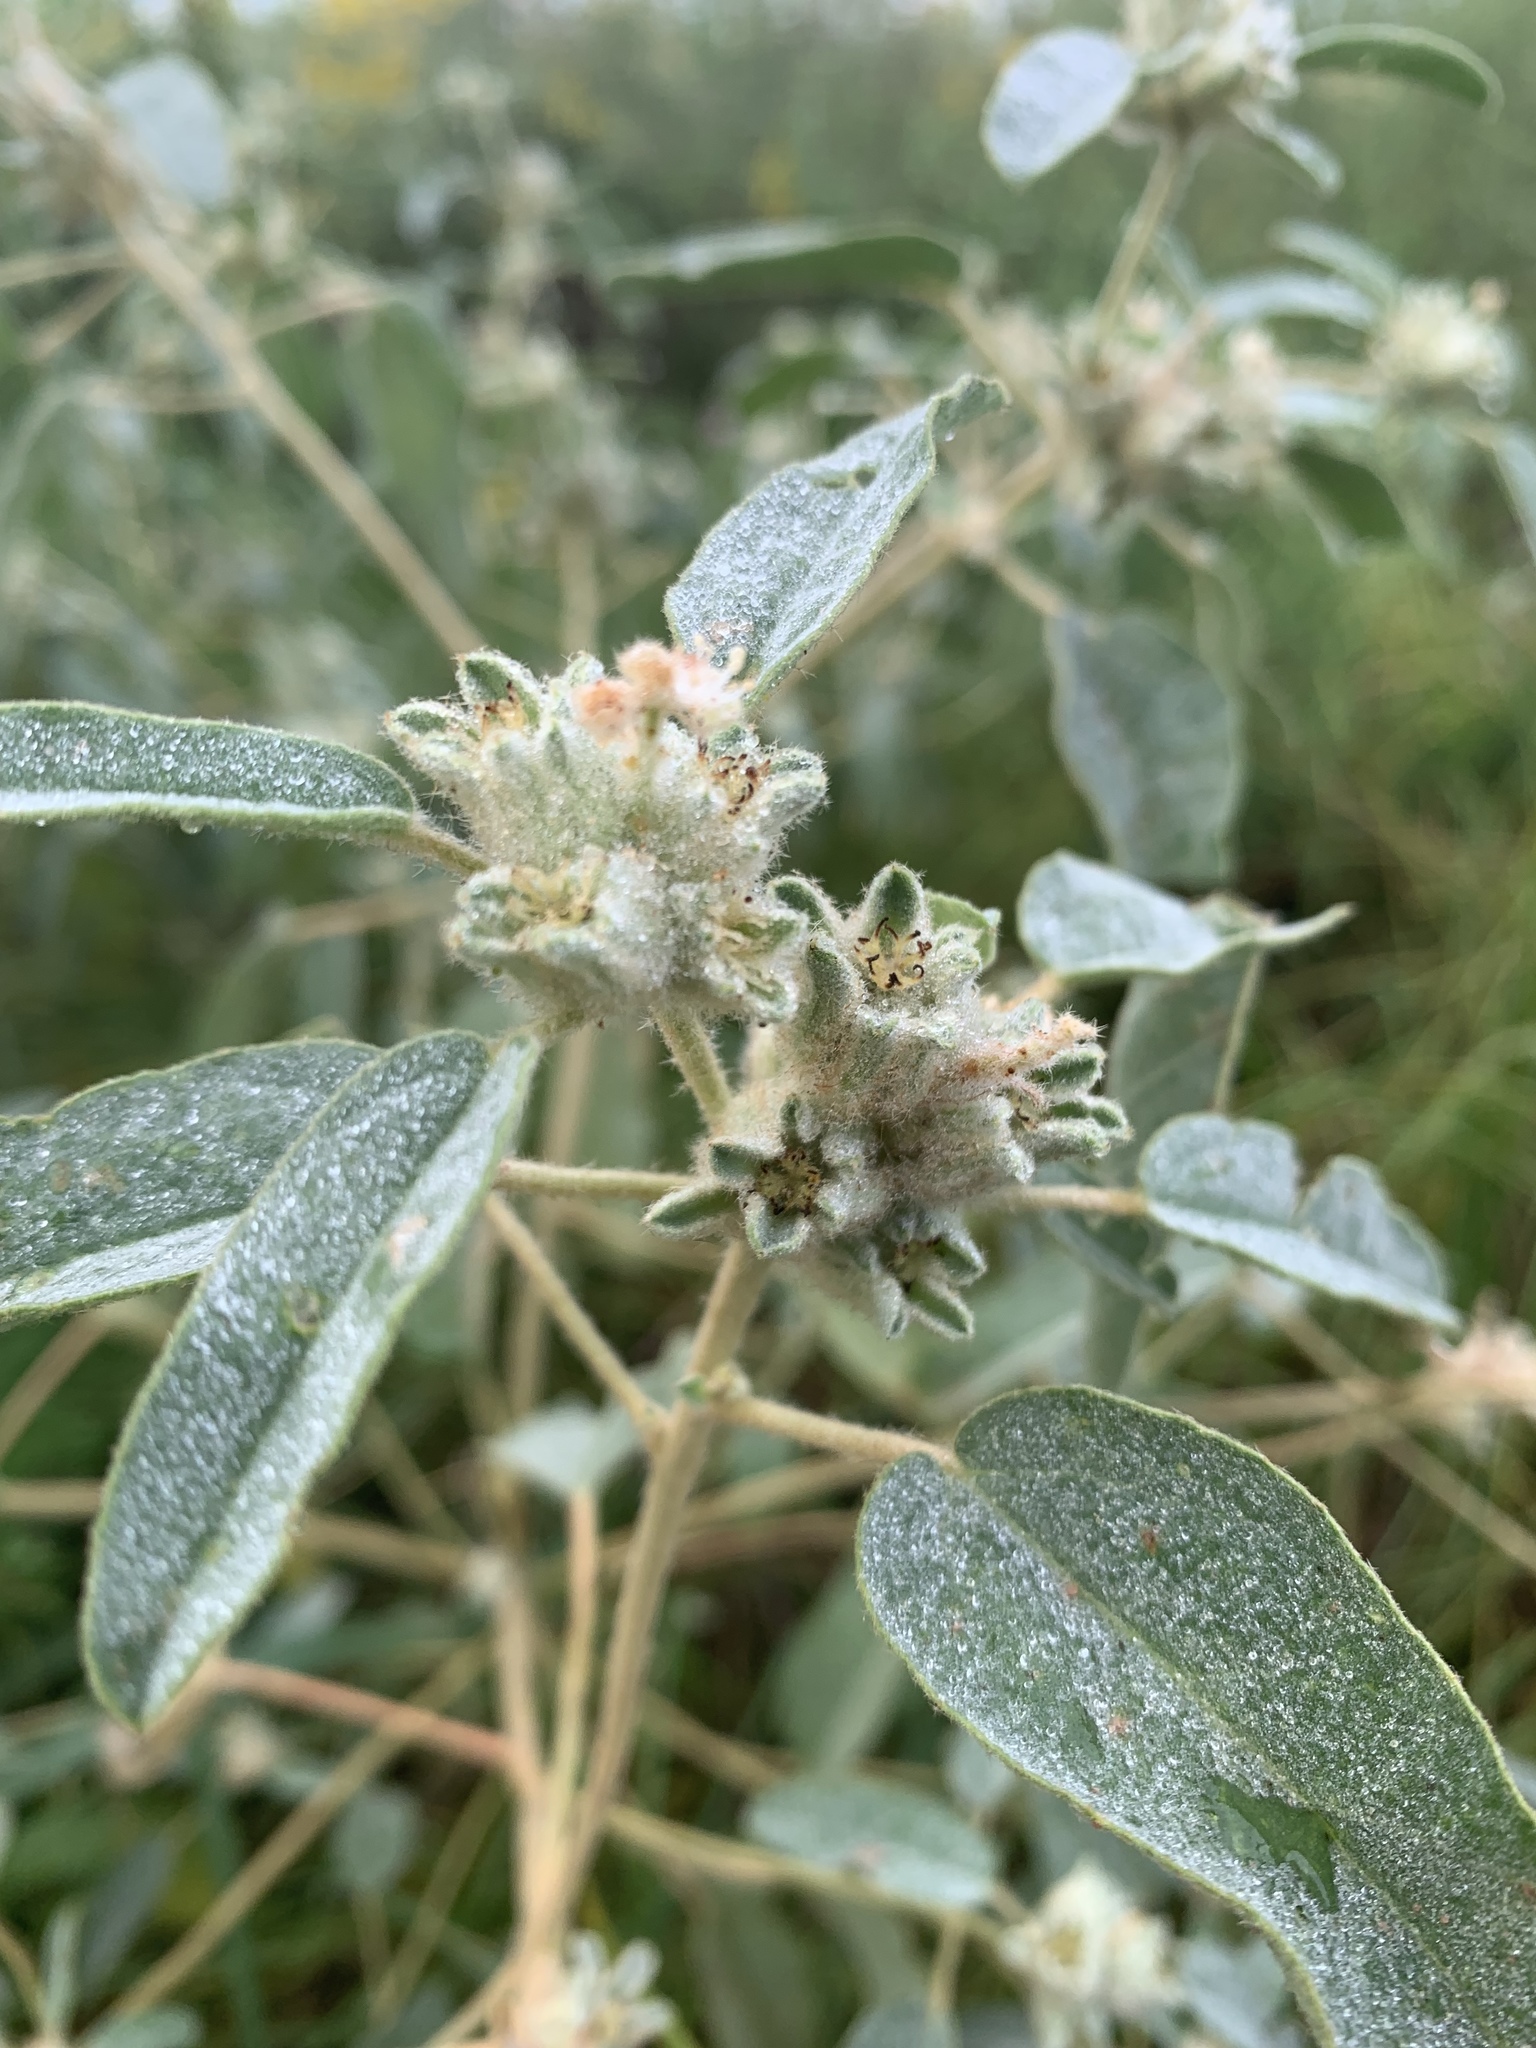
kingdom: Plantae
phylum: Tracheophyta
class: Magnoliopsida
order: Malpighiales
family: Euphorbiaceae
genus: Croton
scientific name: Croton capitatus
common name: Woolly croton
